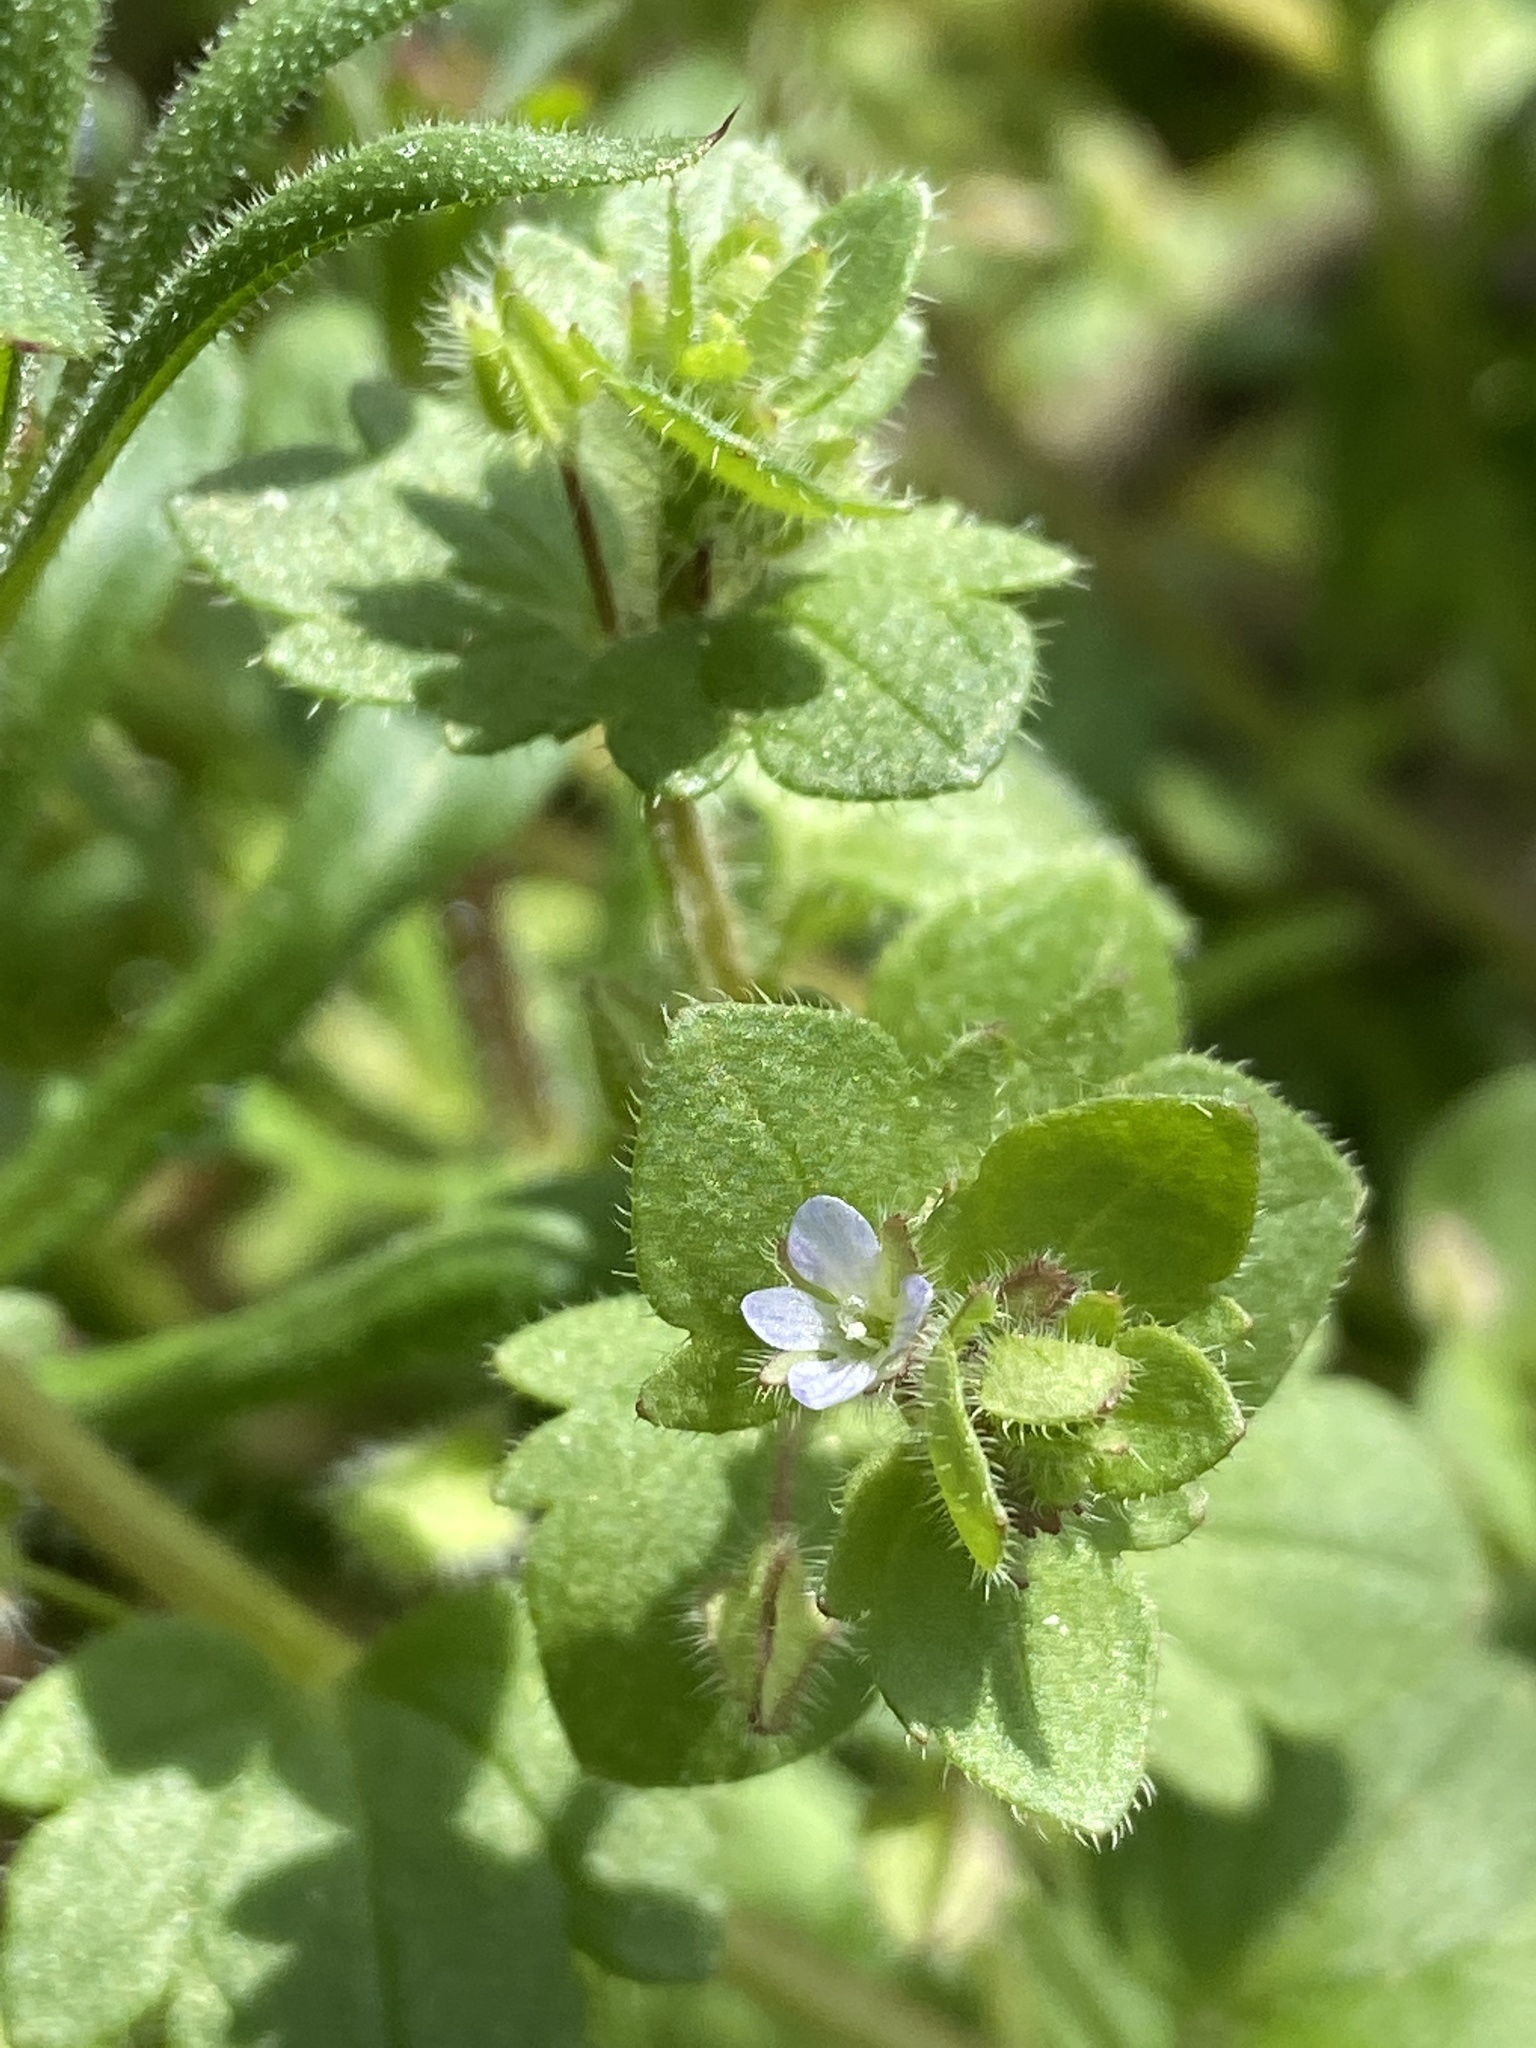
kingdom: Plantae
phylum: Tracheophyta
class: Magnoliopsida
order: Lamiales
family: Plantaginaceae
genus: Veronica
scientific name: Veronica sublobata
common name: False ivy-leaved speedwell
